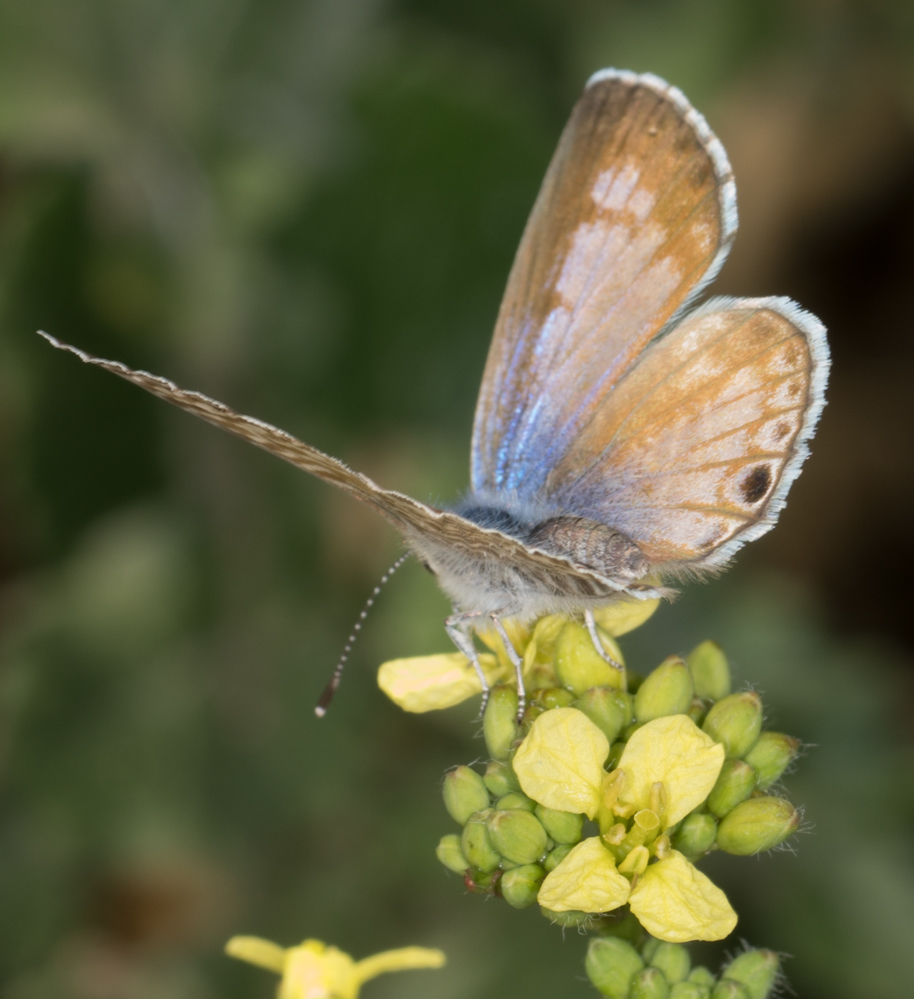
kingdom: Animalia
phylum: Arthropoda
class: Insecta
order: Lepidoptera
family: Lycaenidae
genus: Leptotes
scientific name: Leptotes marina
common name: Marine blue
